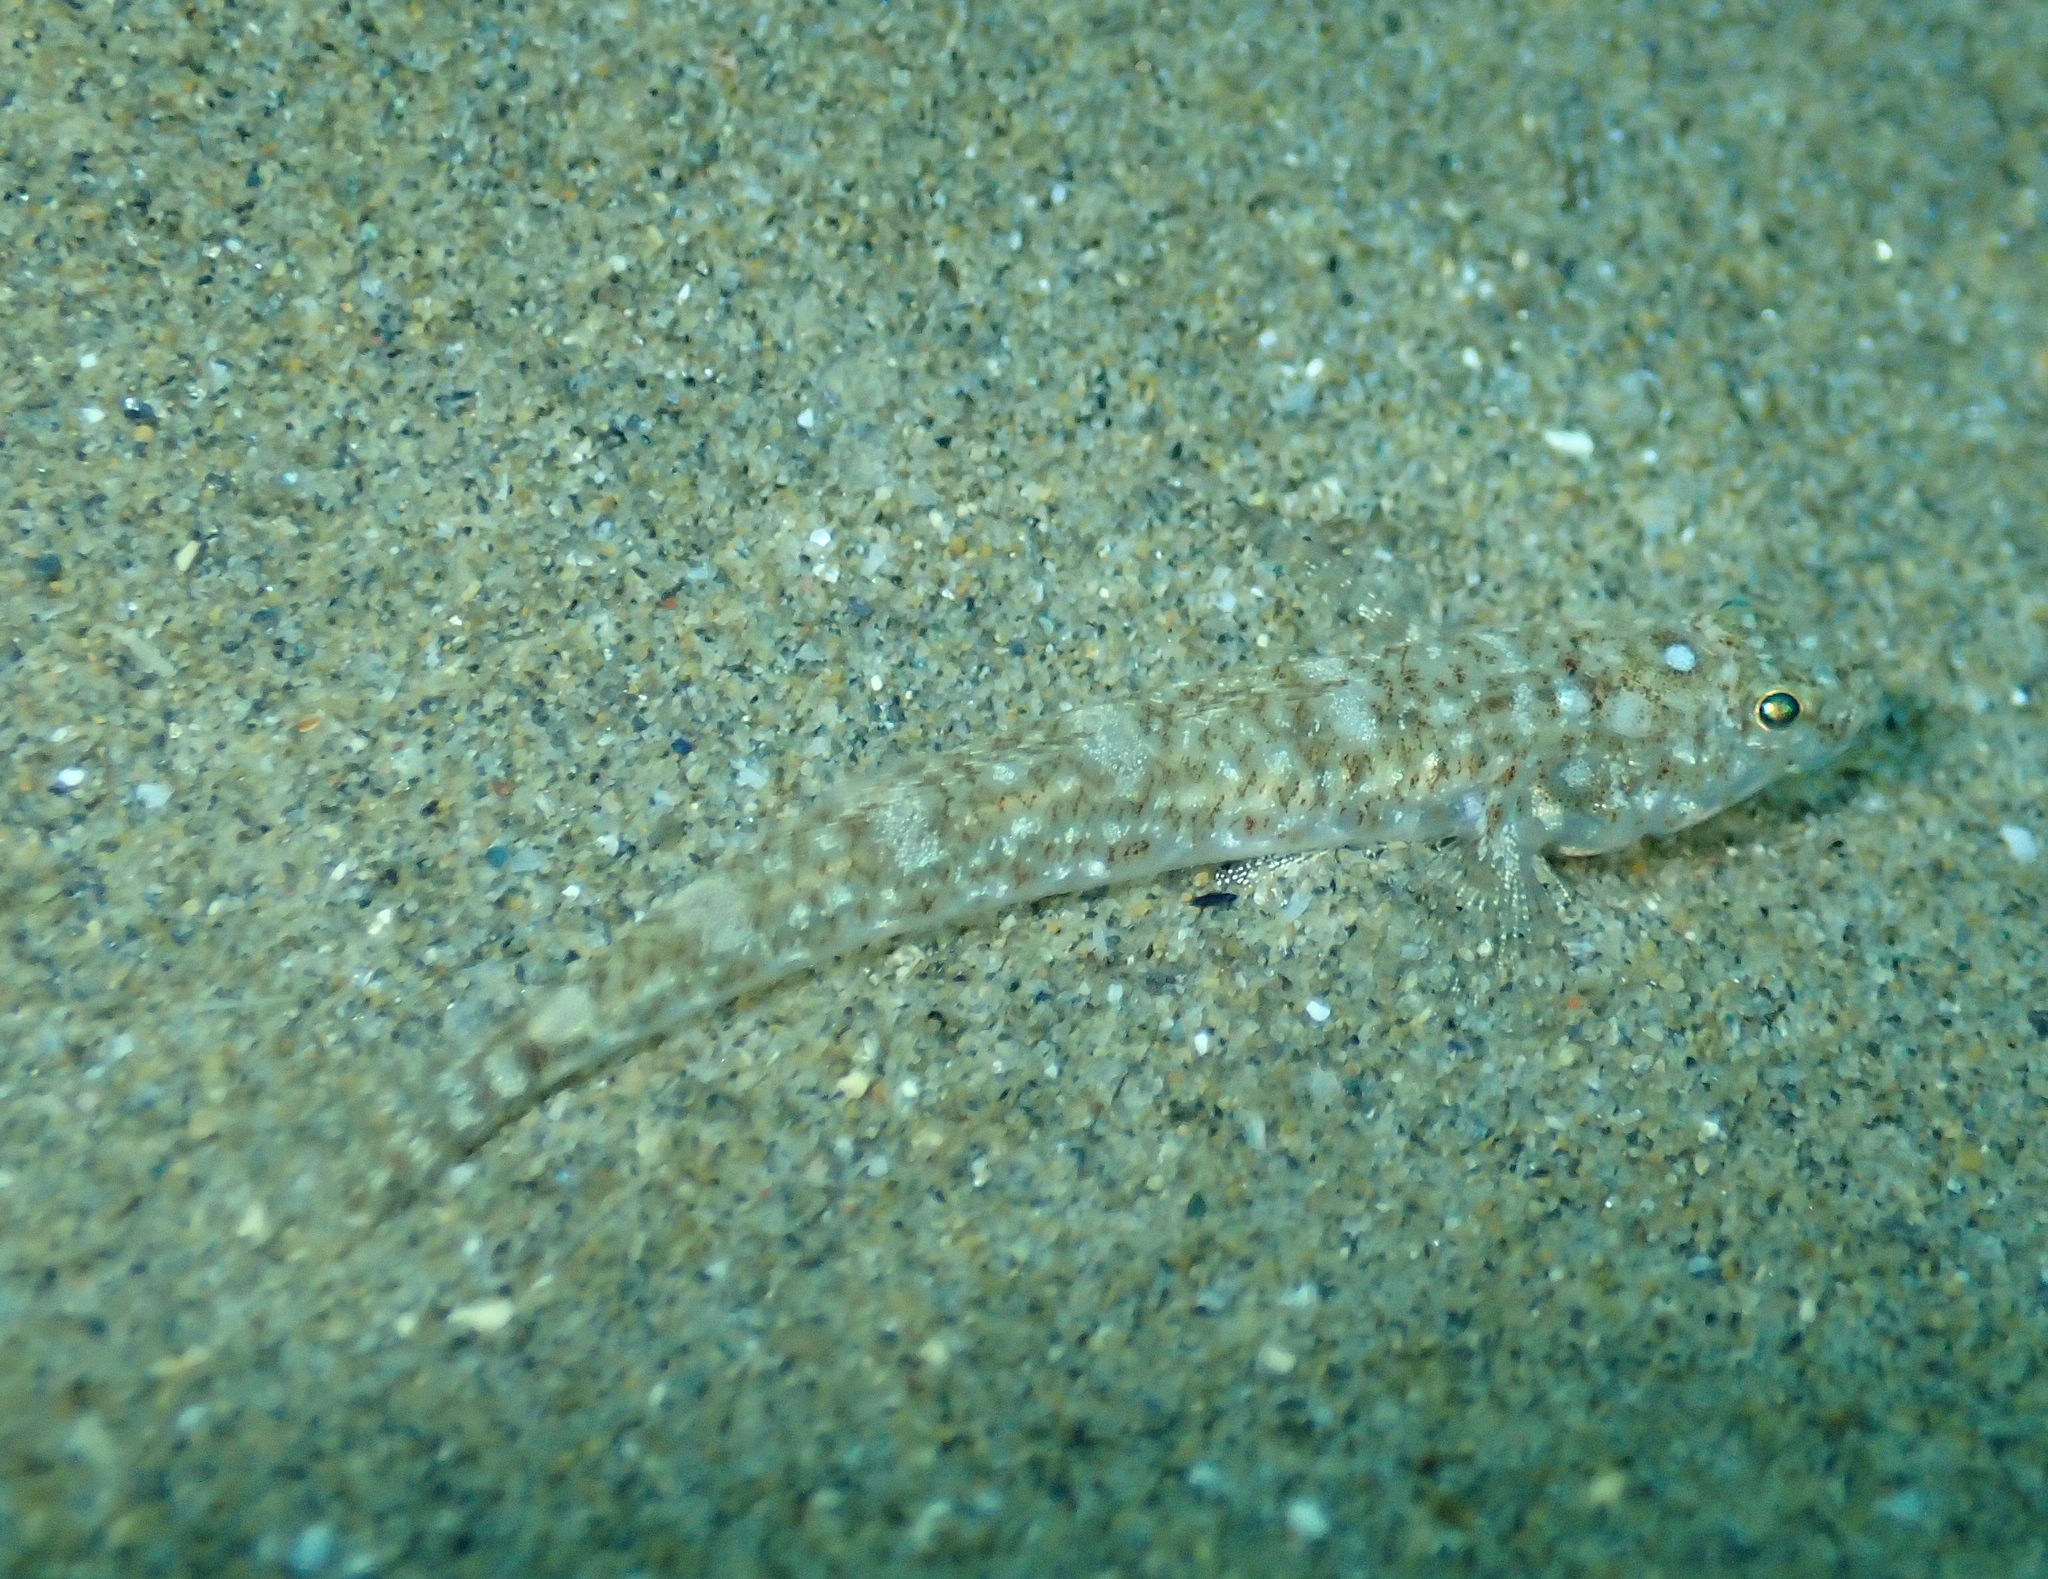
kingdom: Animalia
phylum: Chordata
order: Perciformes
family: Gobiidae
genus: Pomatoschistus
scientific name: Pomatoschistus marmoratus
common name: Marbled goby
